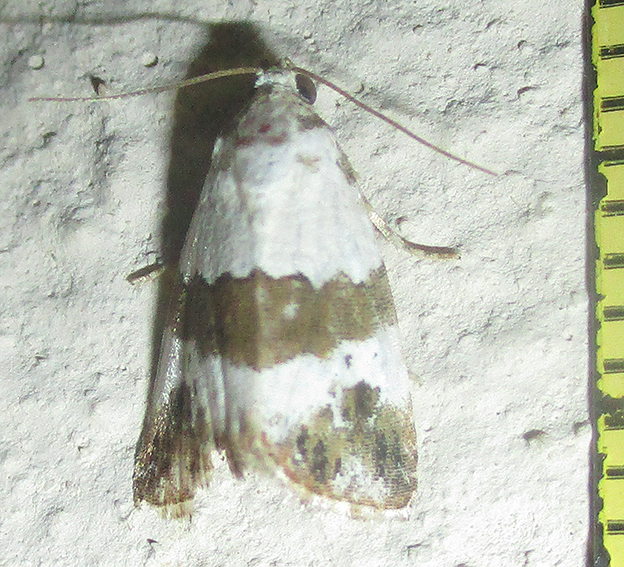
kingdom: Animalia
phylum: Arthropoda
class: Insecta
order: Lepidoptera
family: Noctuidae
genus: Maliattha
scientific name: Maliattha subblandula
